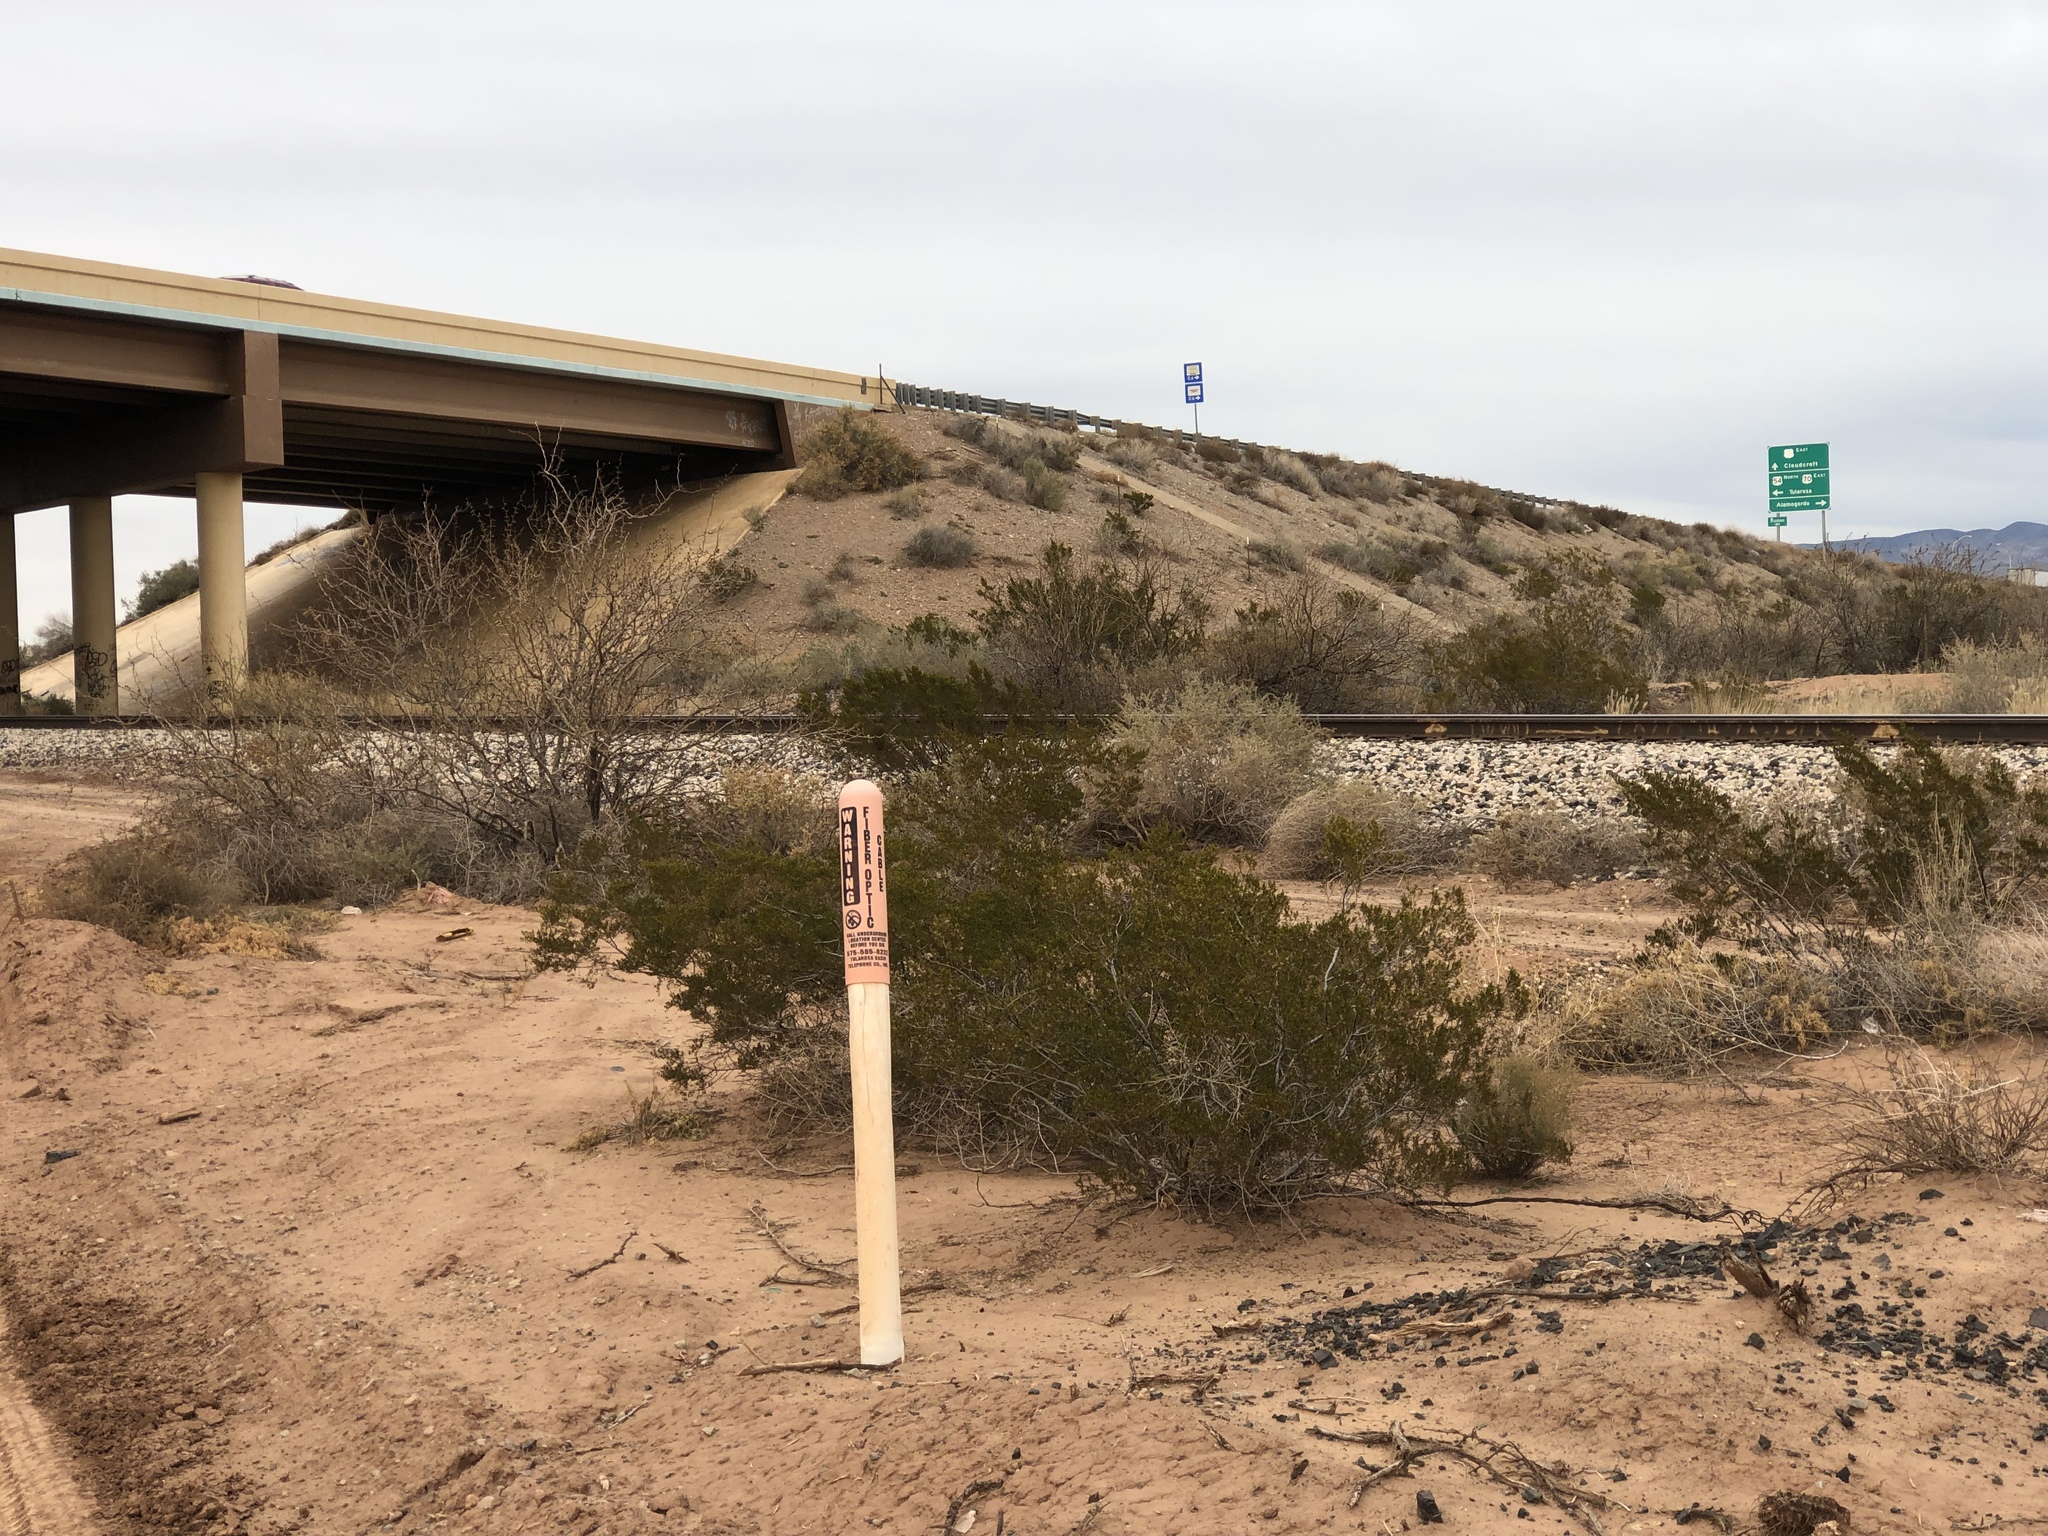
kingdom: Plantae
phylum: Tracheophyta
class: Magnoliopsida
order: Zygophyllales
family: Zygophyllaceae
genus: Larrea
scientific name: Larrea tridentata
